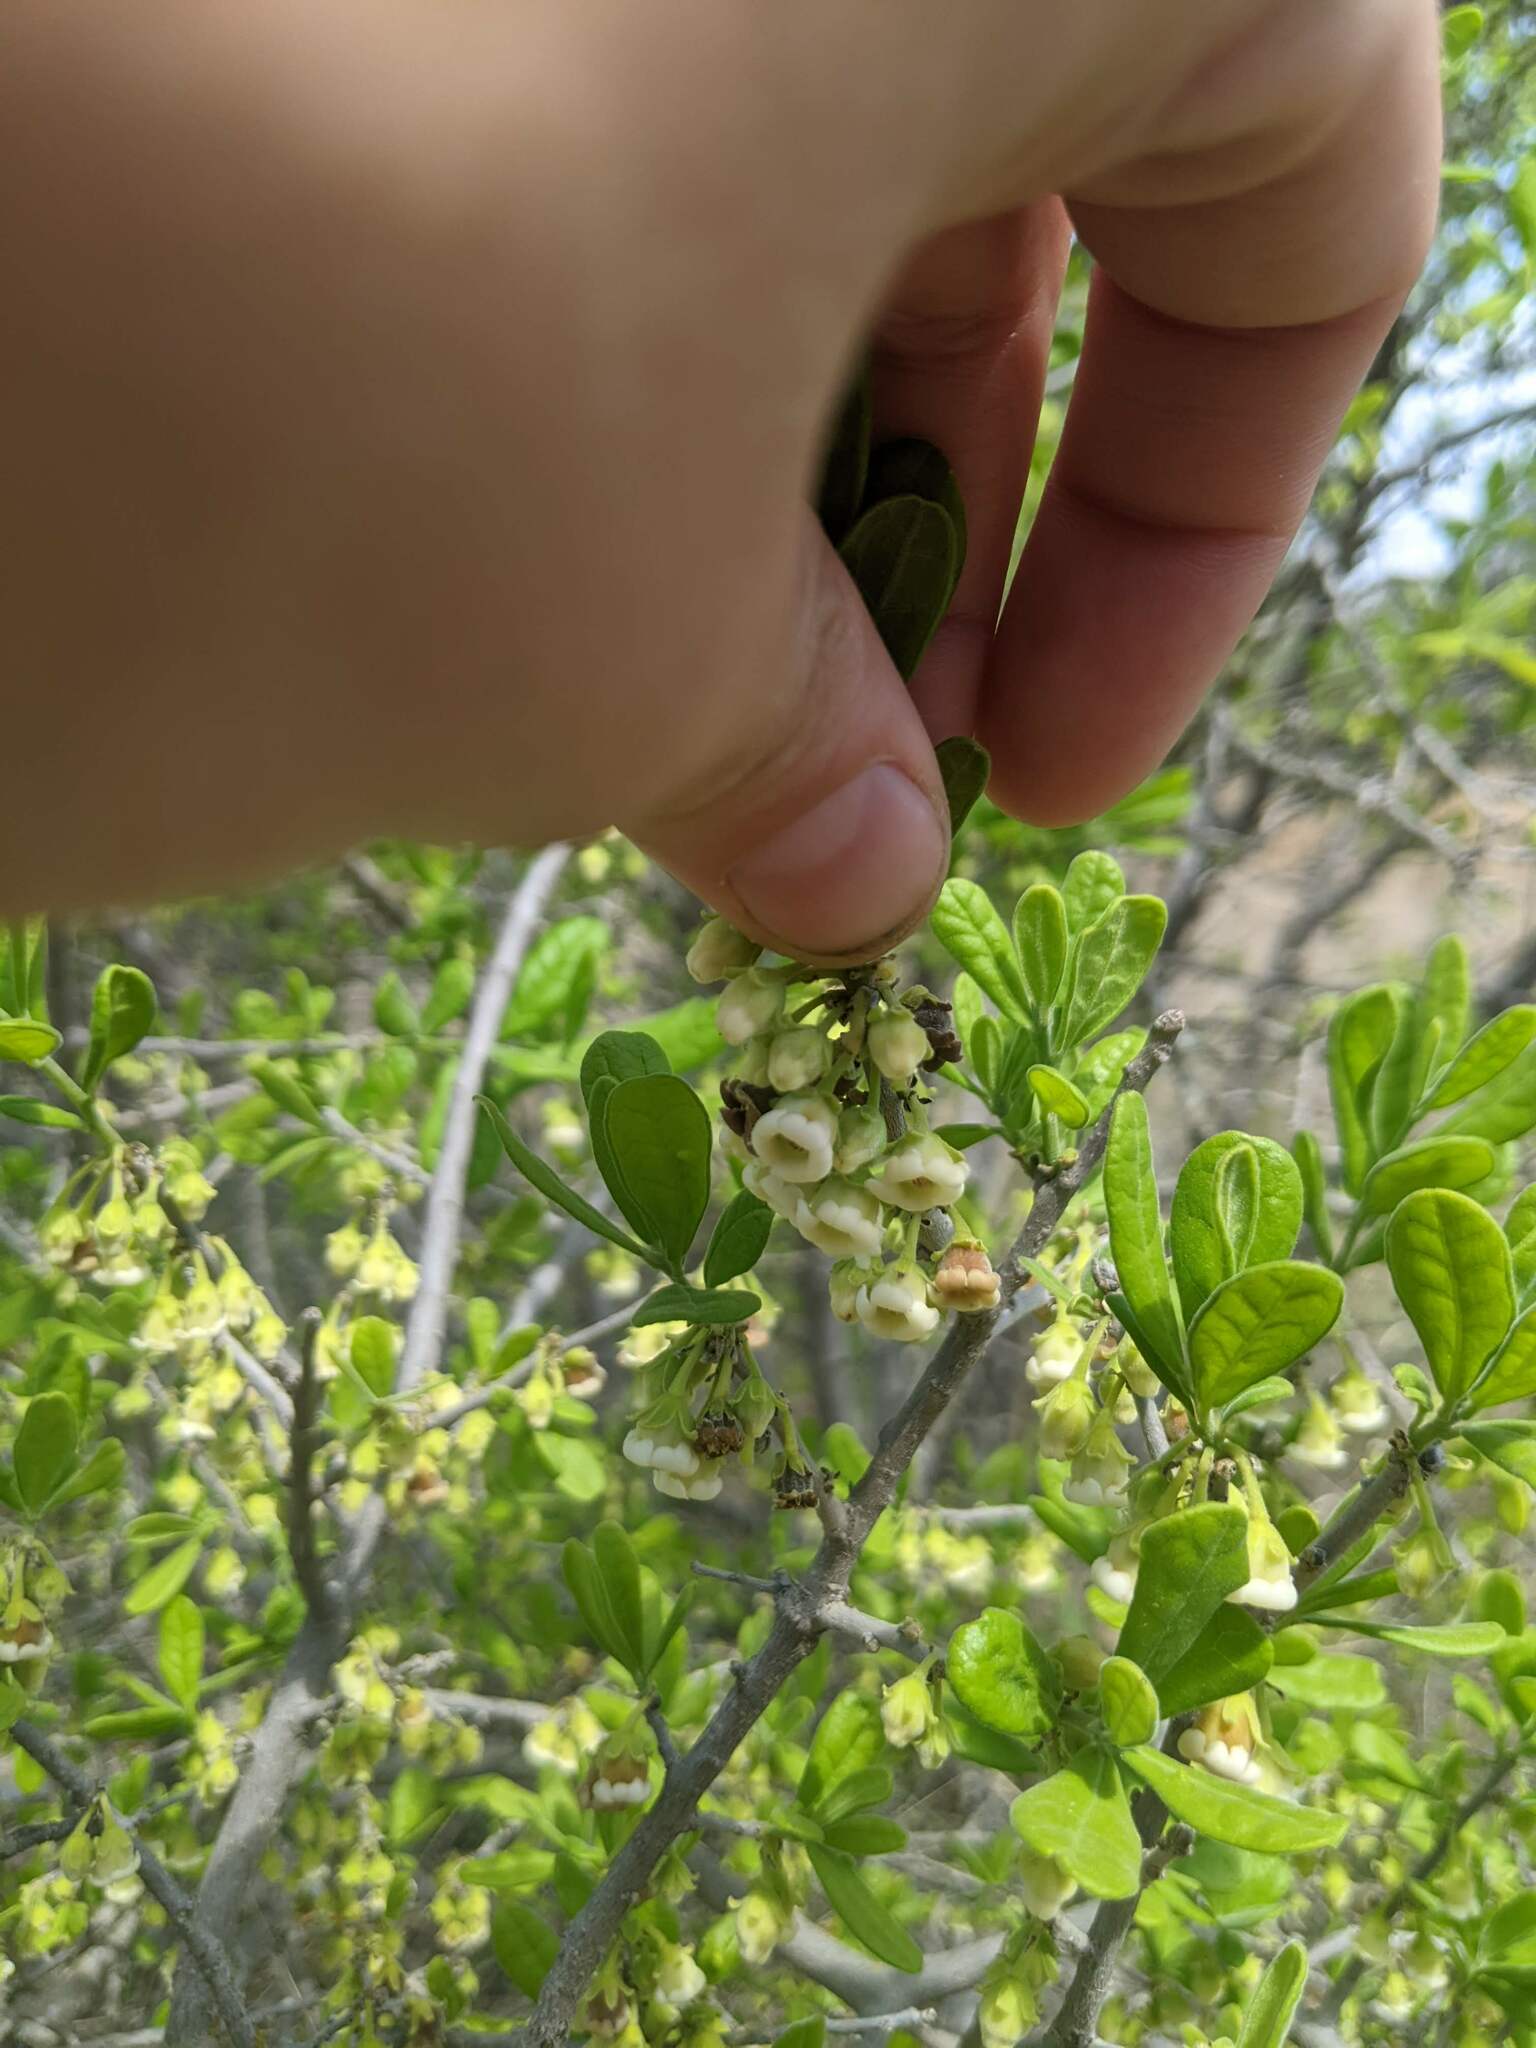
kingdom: Plantae
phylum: Tracheophyta
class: Magnoliopsida
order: Ericales
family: Ebenaceae
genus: Diospyros
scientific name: Diospyros texana
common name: Texas persimmon
